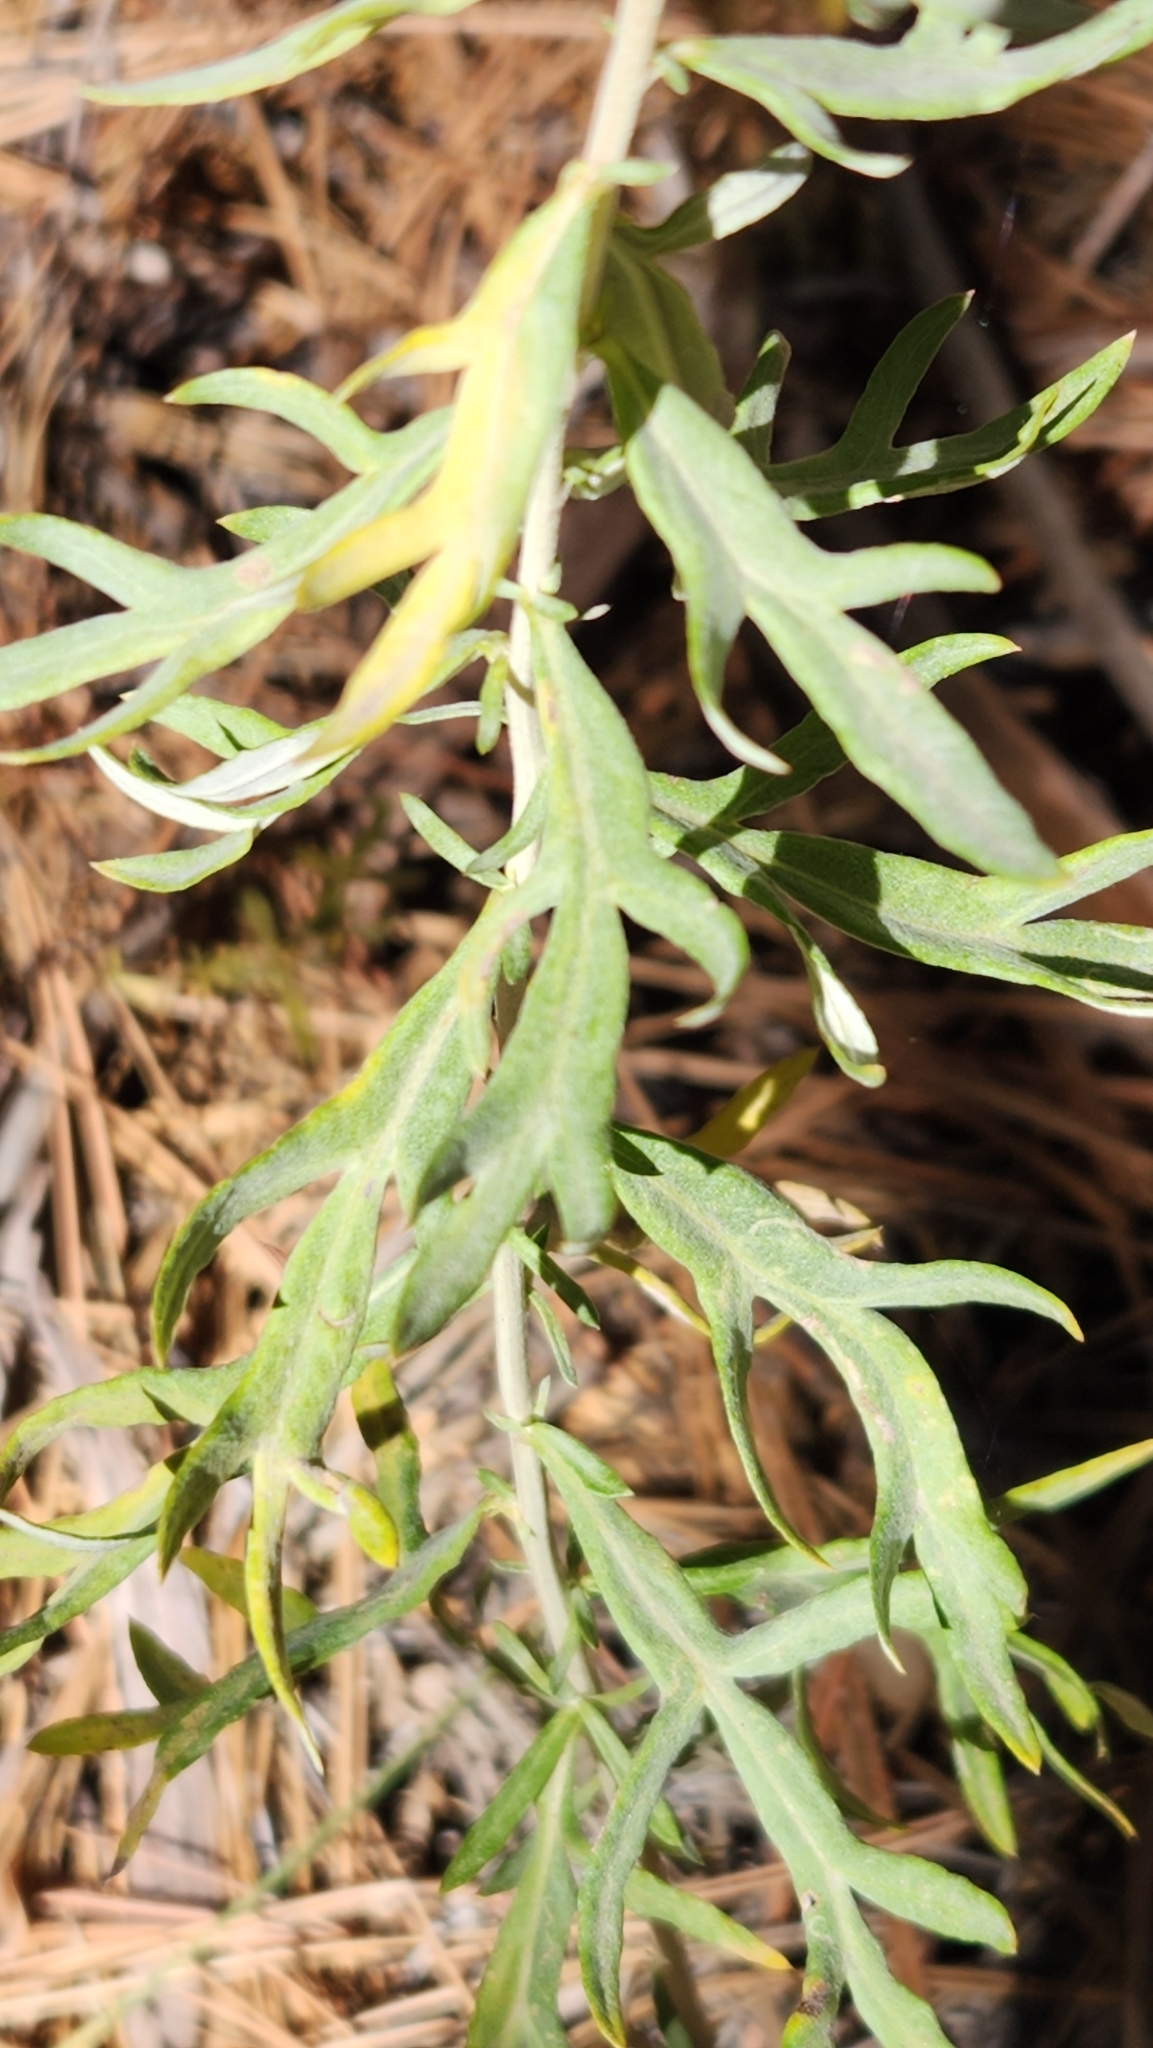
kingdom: Plantae
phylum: Tracheophyta
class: Magnoliopsida
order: Asterales
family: Asteraceae
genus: Artemisia
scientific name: Artemisia ludoviciana
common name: Western mugwort
